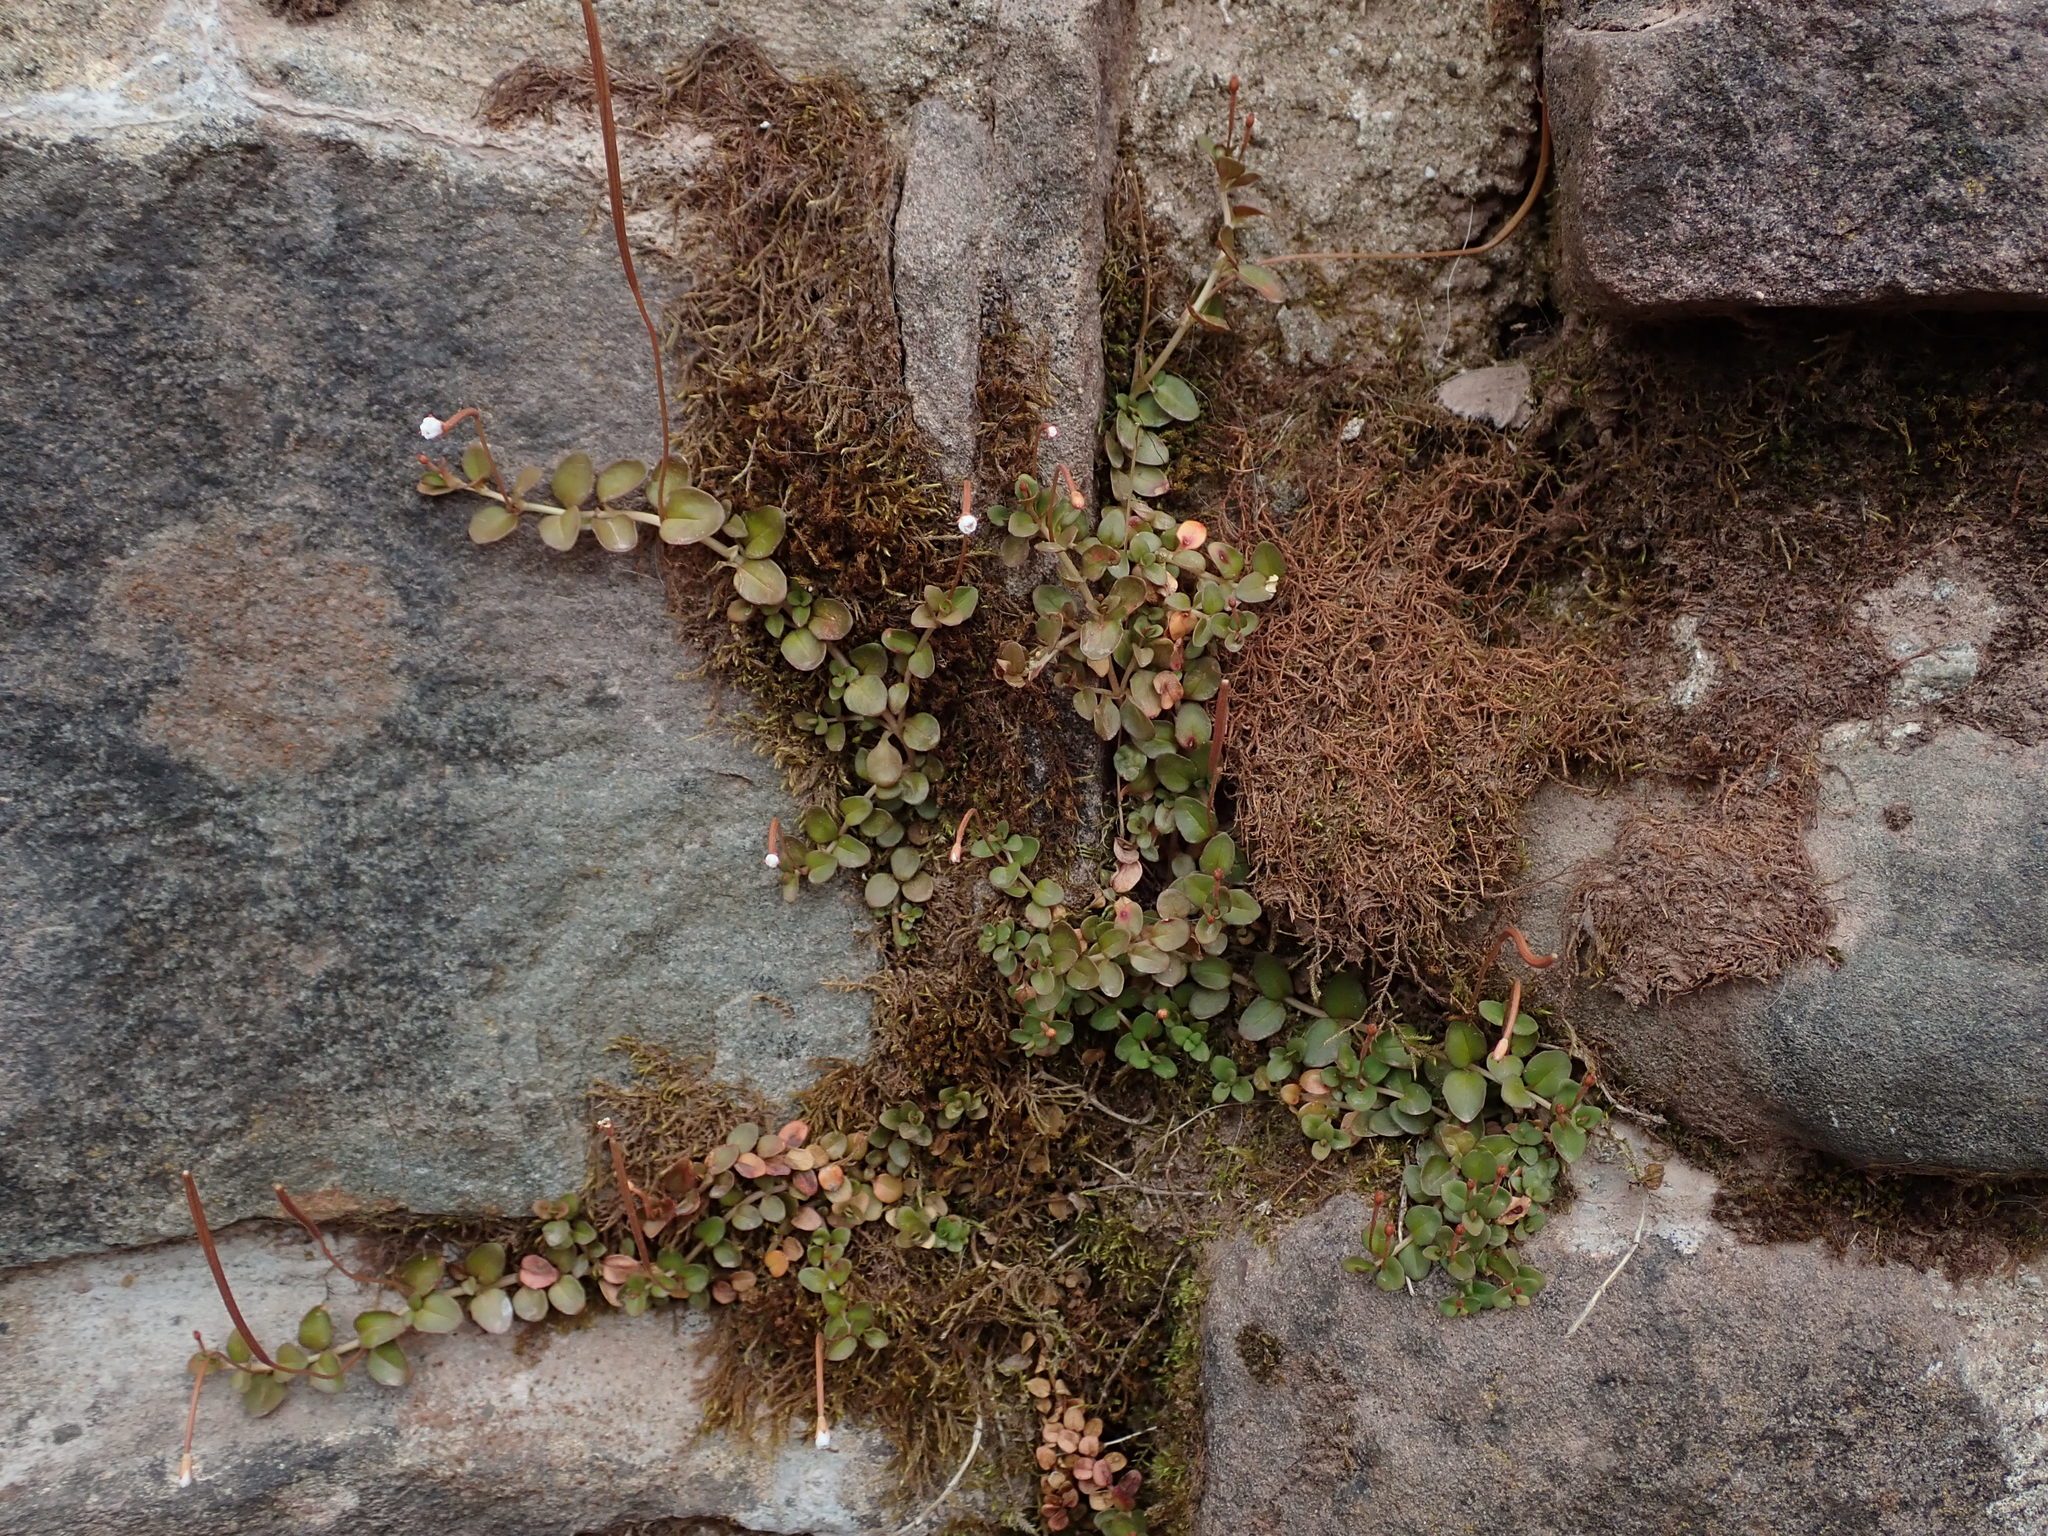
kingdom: Plantae
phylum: Tracheophyta
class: Magnoliopsida
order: Myrtales
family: Onagraceae
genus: Epilobium
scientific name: Epilobium brunnescens
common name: New zealand willowherb
